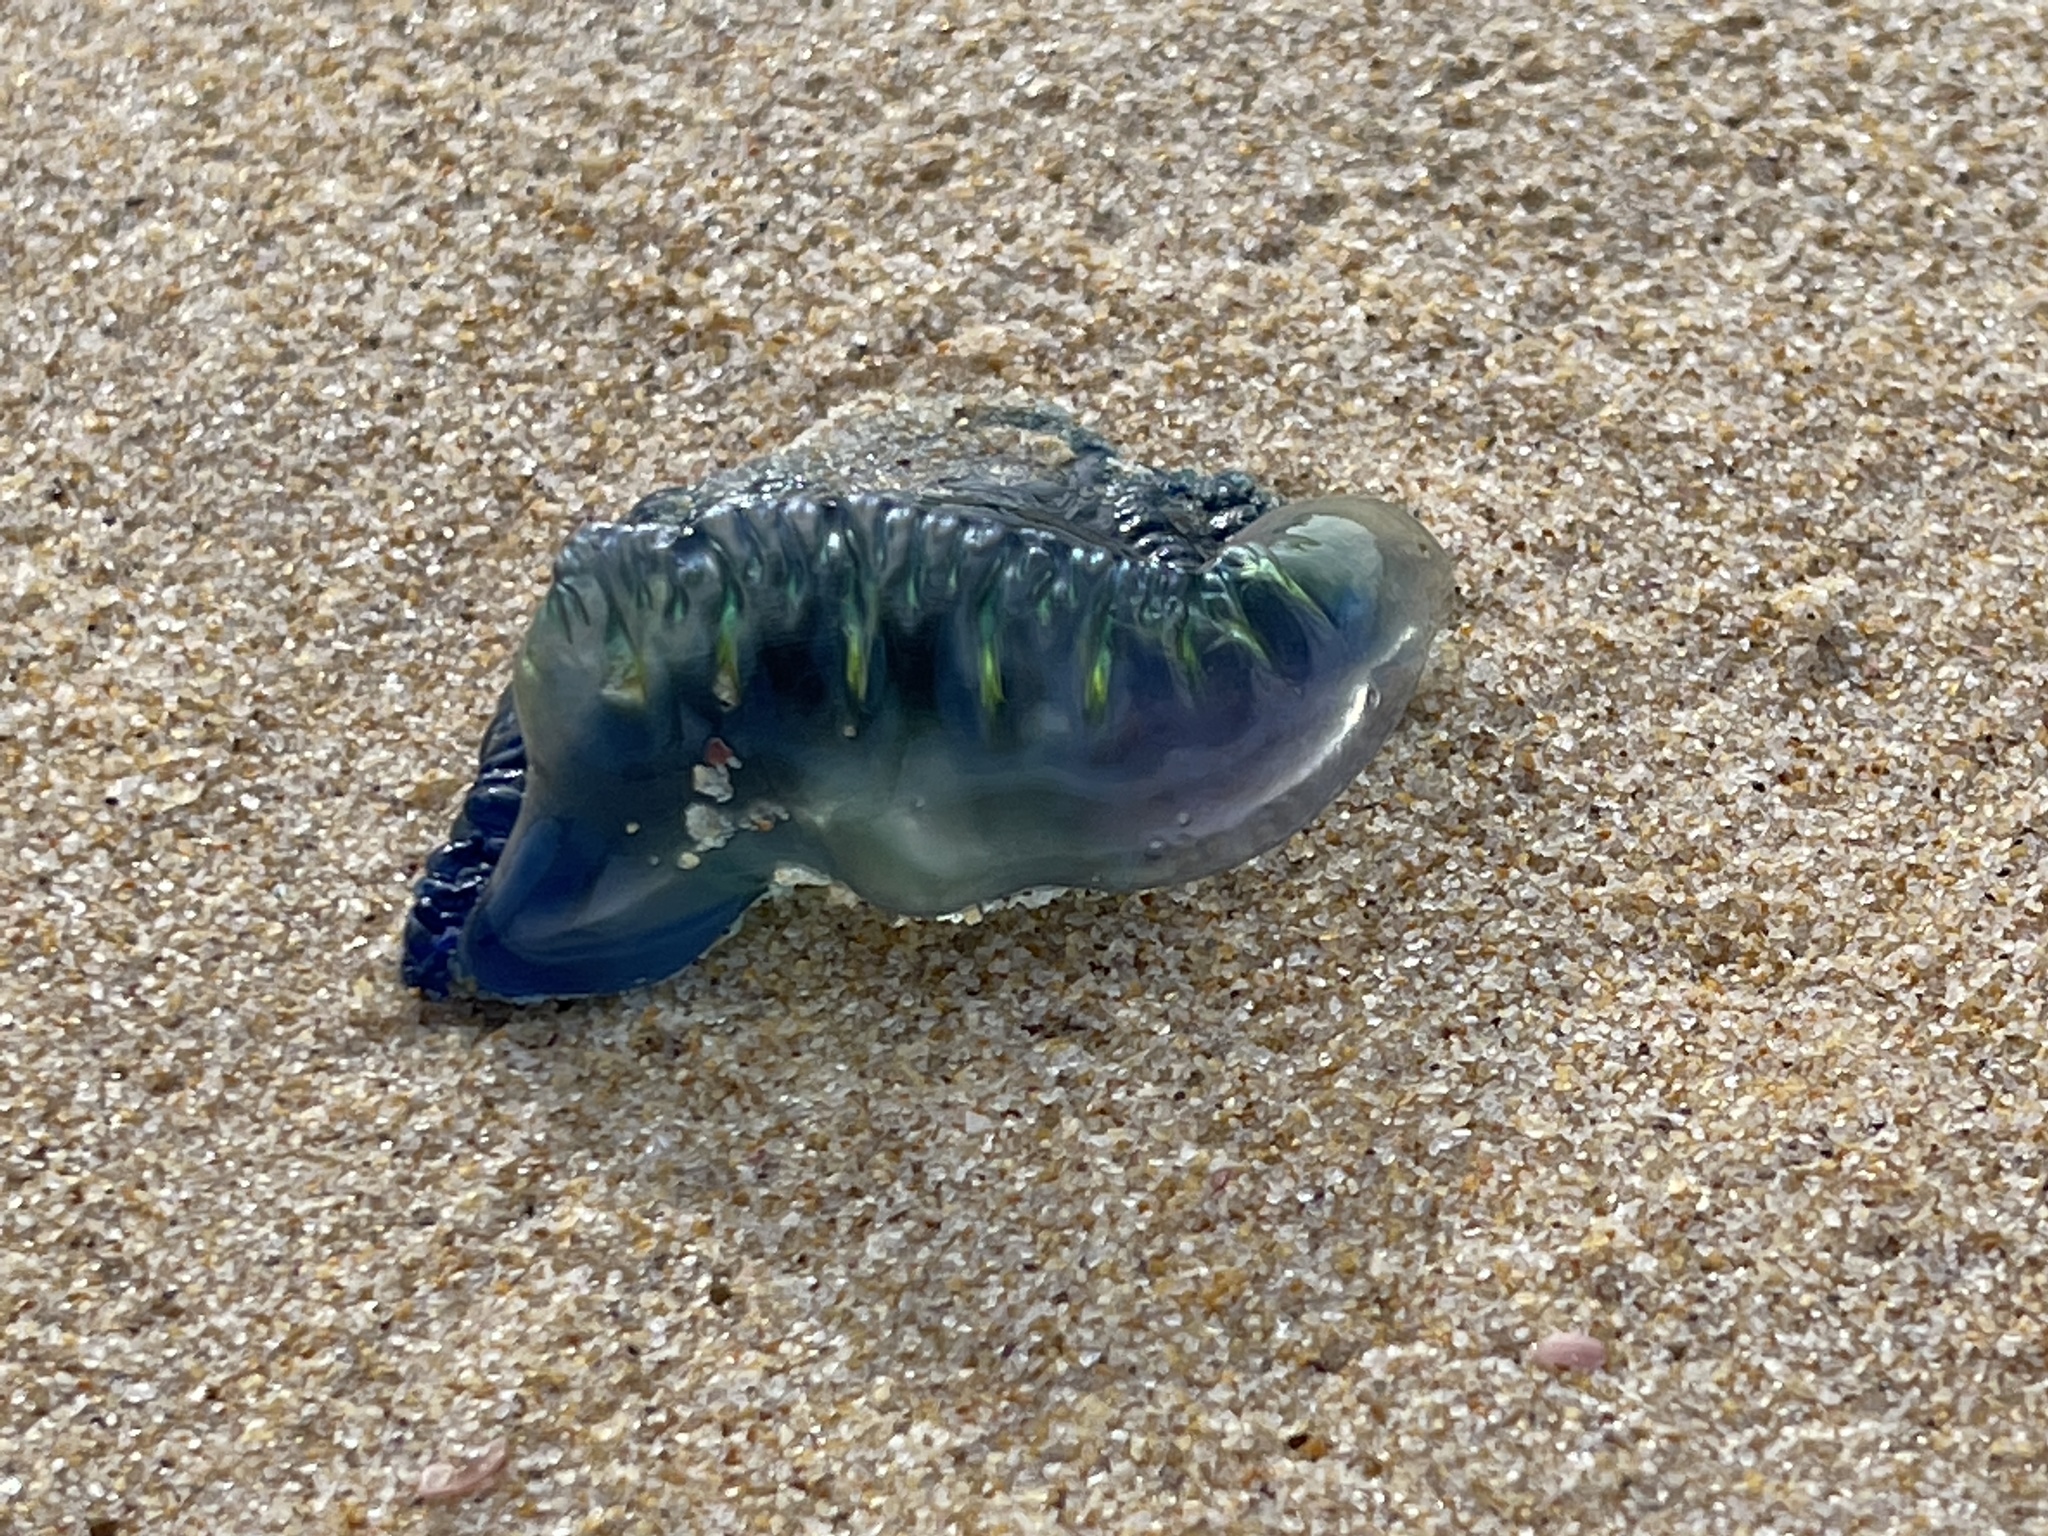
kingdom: Animalia
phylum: Cnidaria
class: Hydrozoa
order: Siphonophorae
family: Physaliidae
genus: Physalia
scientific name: Physalia physalis
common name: Portuguese man-of-war
